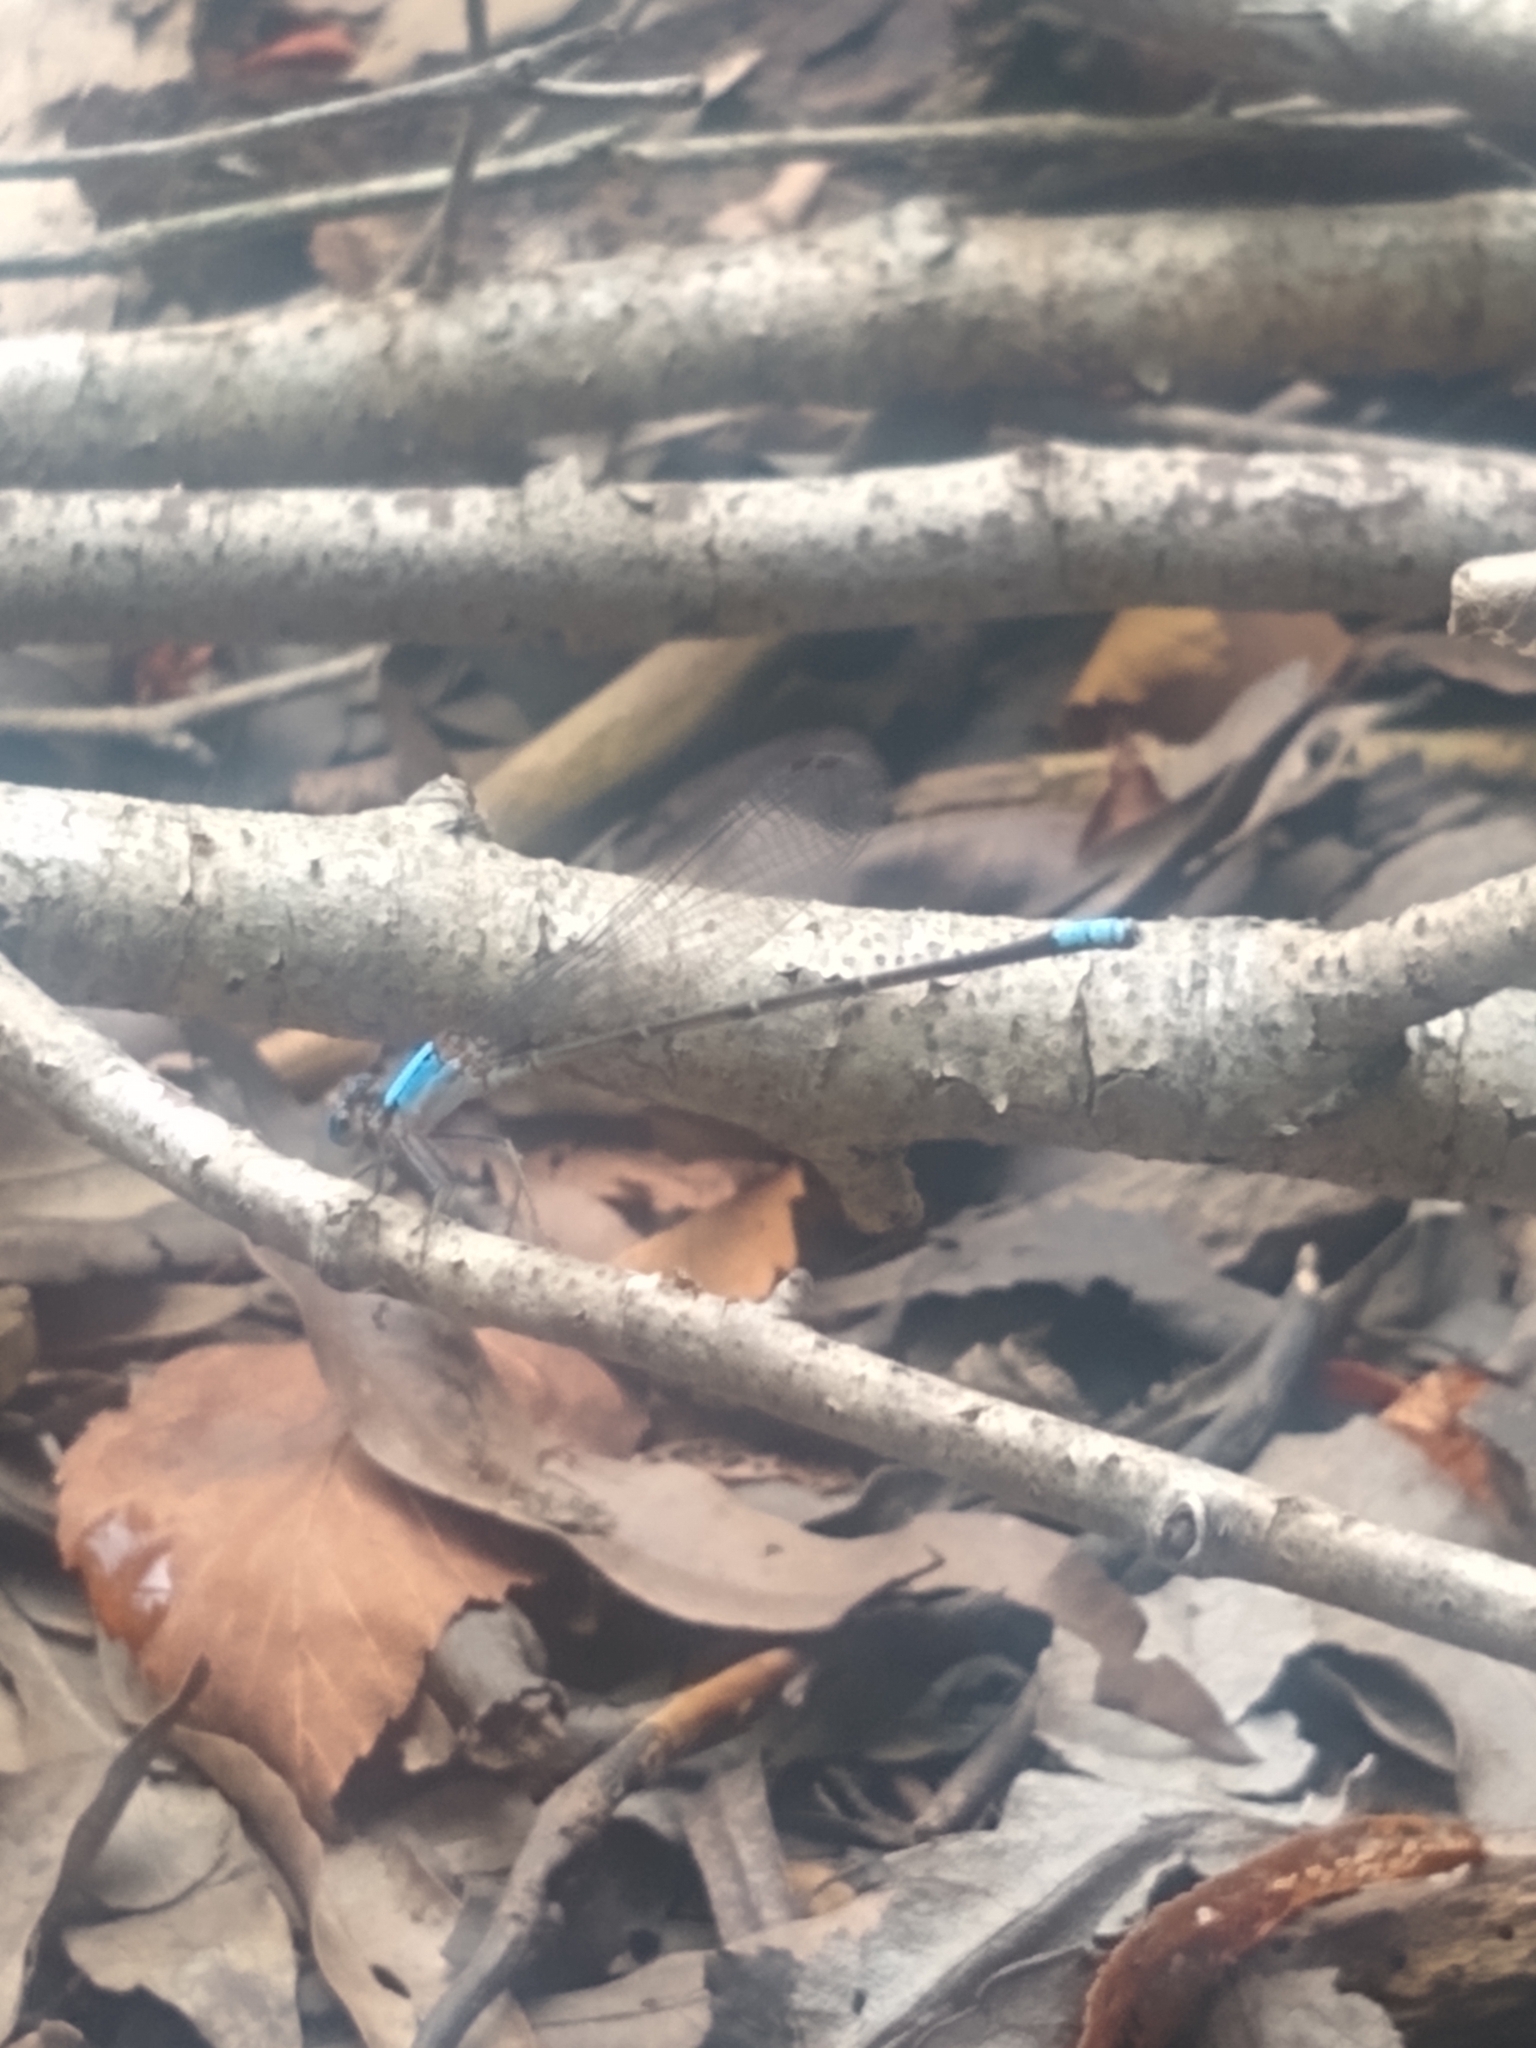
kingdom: Animalia
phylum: Arthropoda
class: Insecta
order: Odonata
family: Coenagrionidae
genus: Argia
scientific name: Argia apicalis
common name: Blue-fronted dancer
